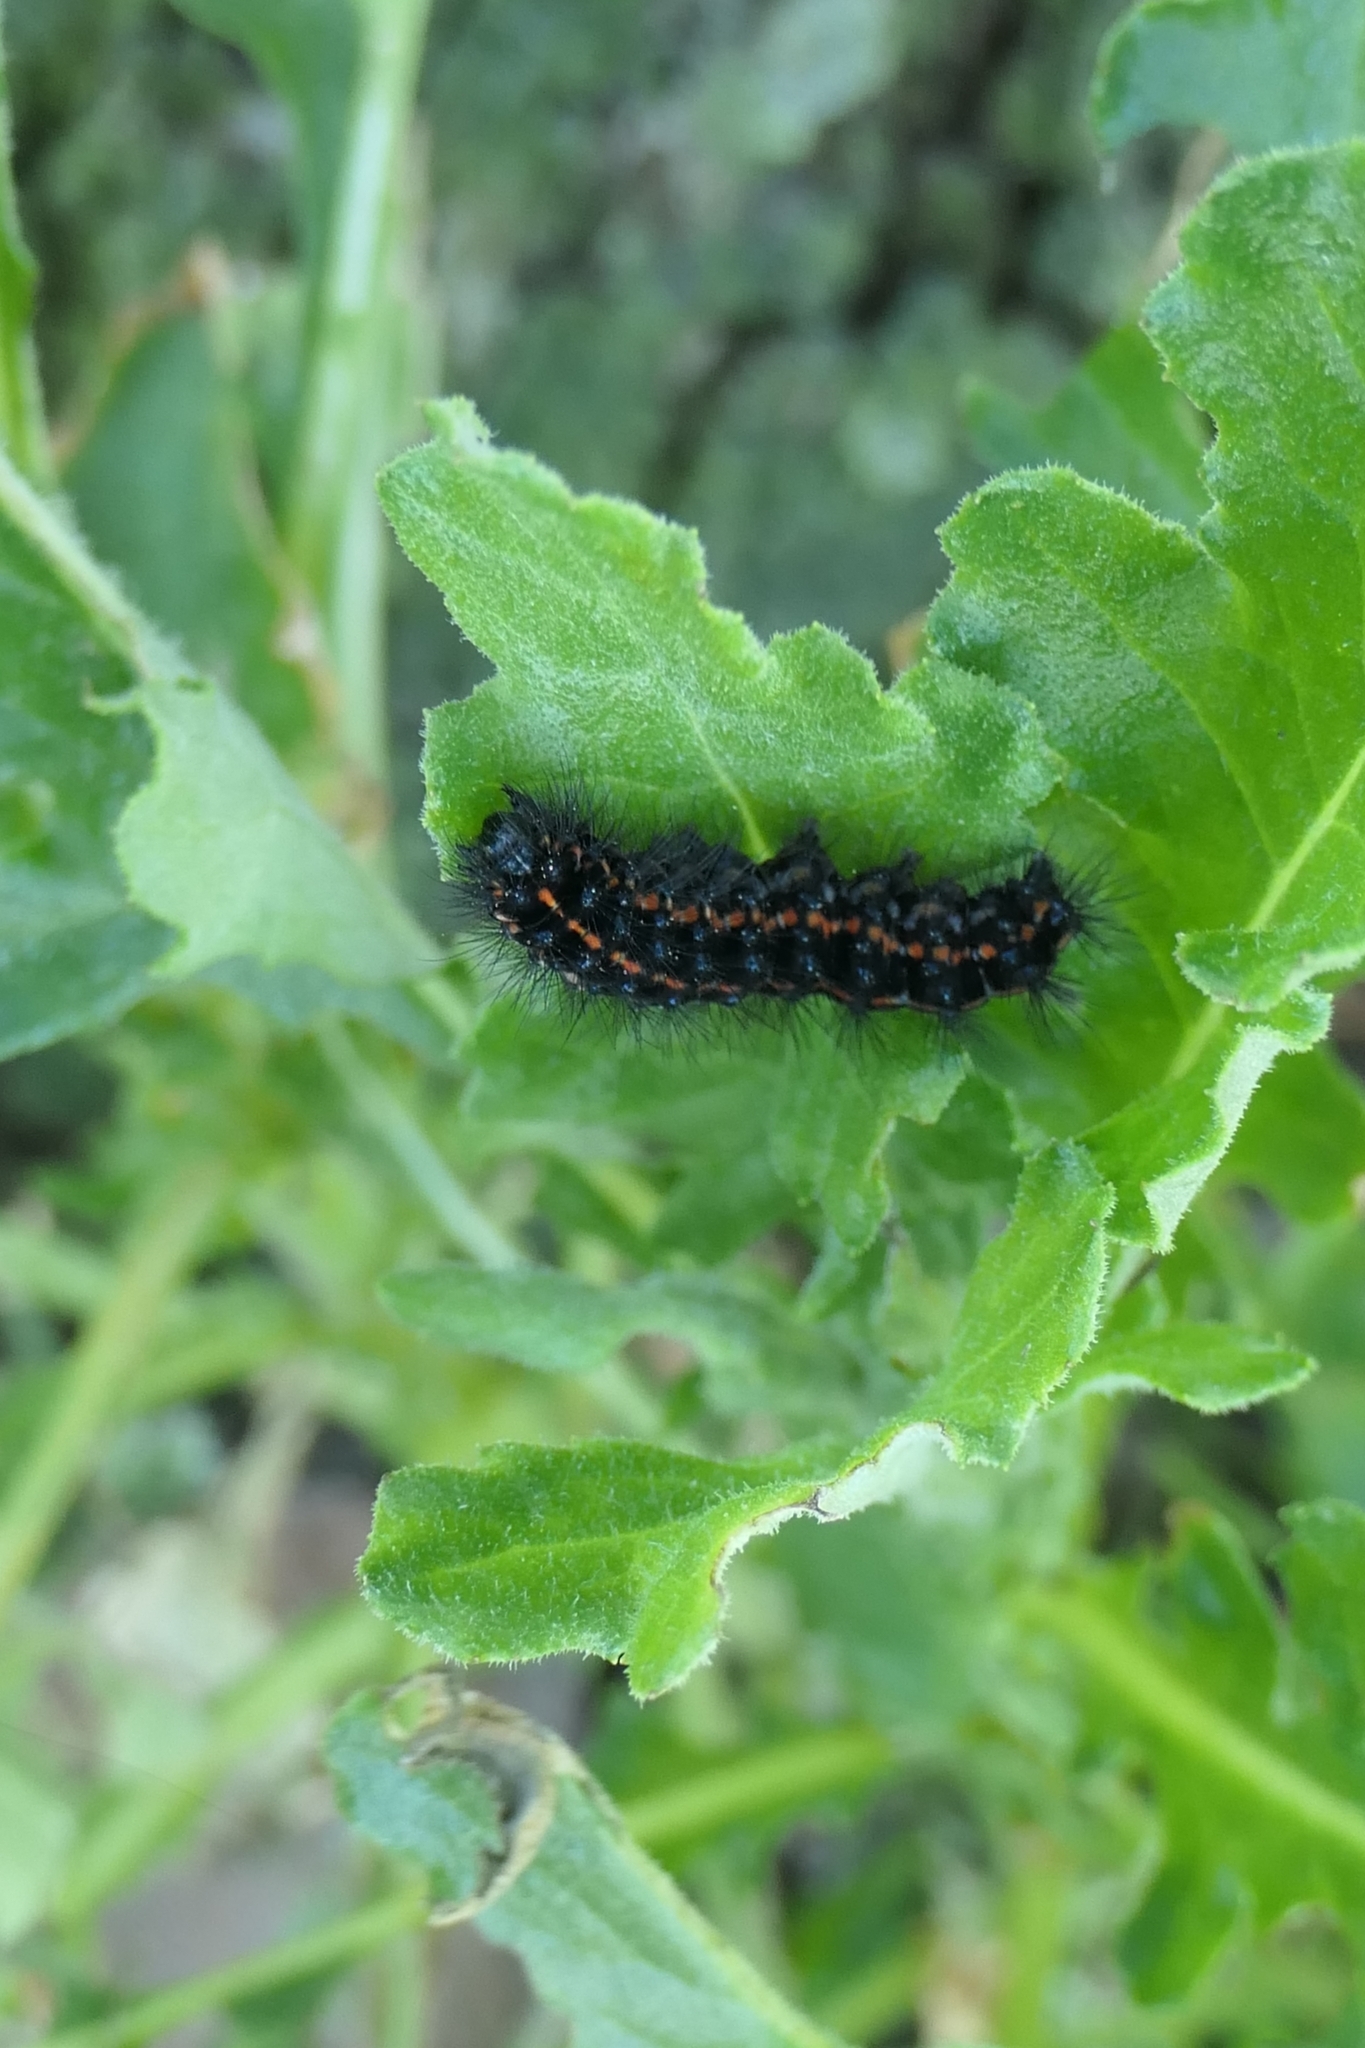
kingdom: Animalia
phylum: Arthropoda
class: Insecta
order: Lepidoptera
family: Erebidae
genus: Nyctemera
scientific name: Nyctemera annulatum
